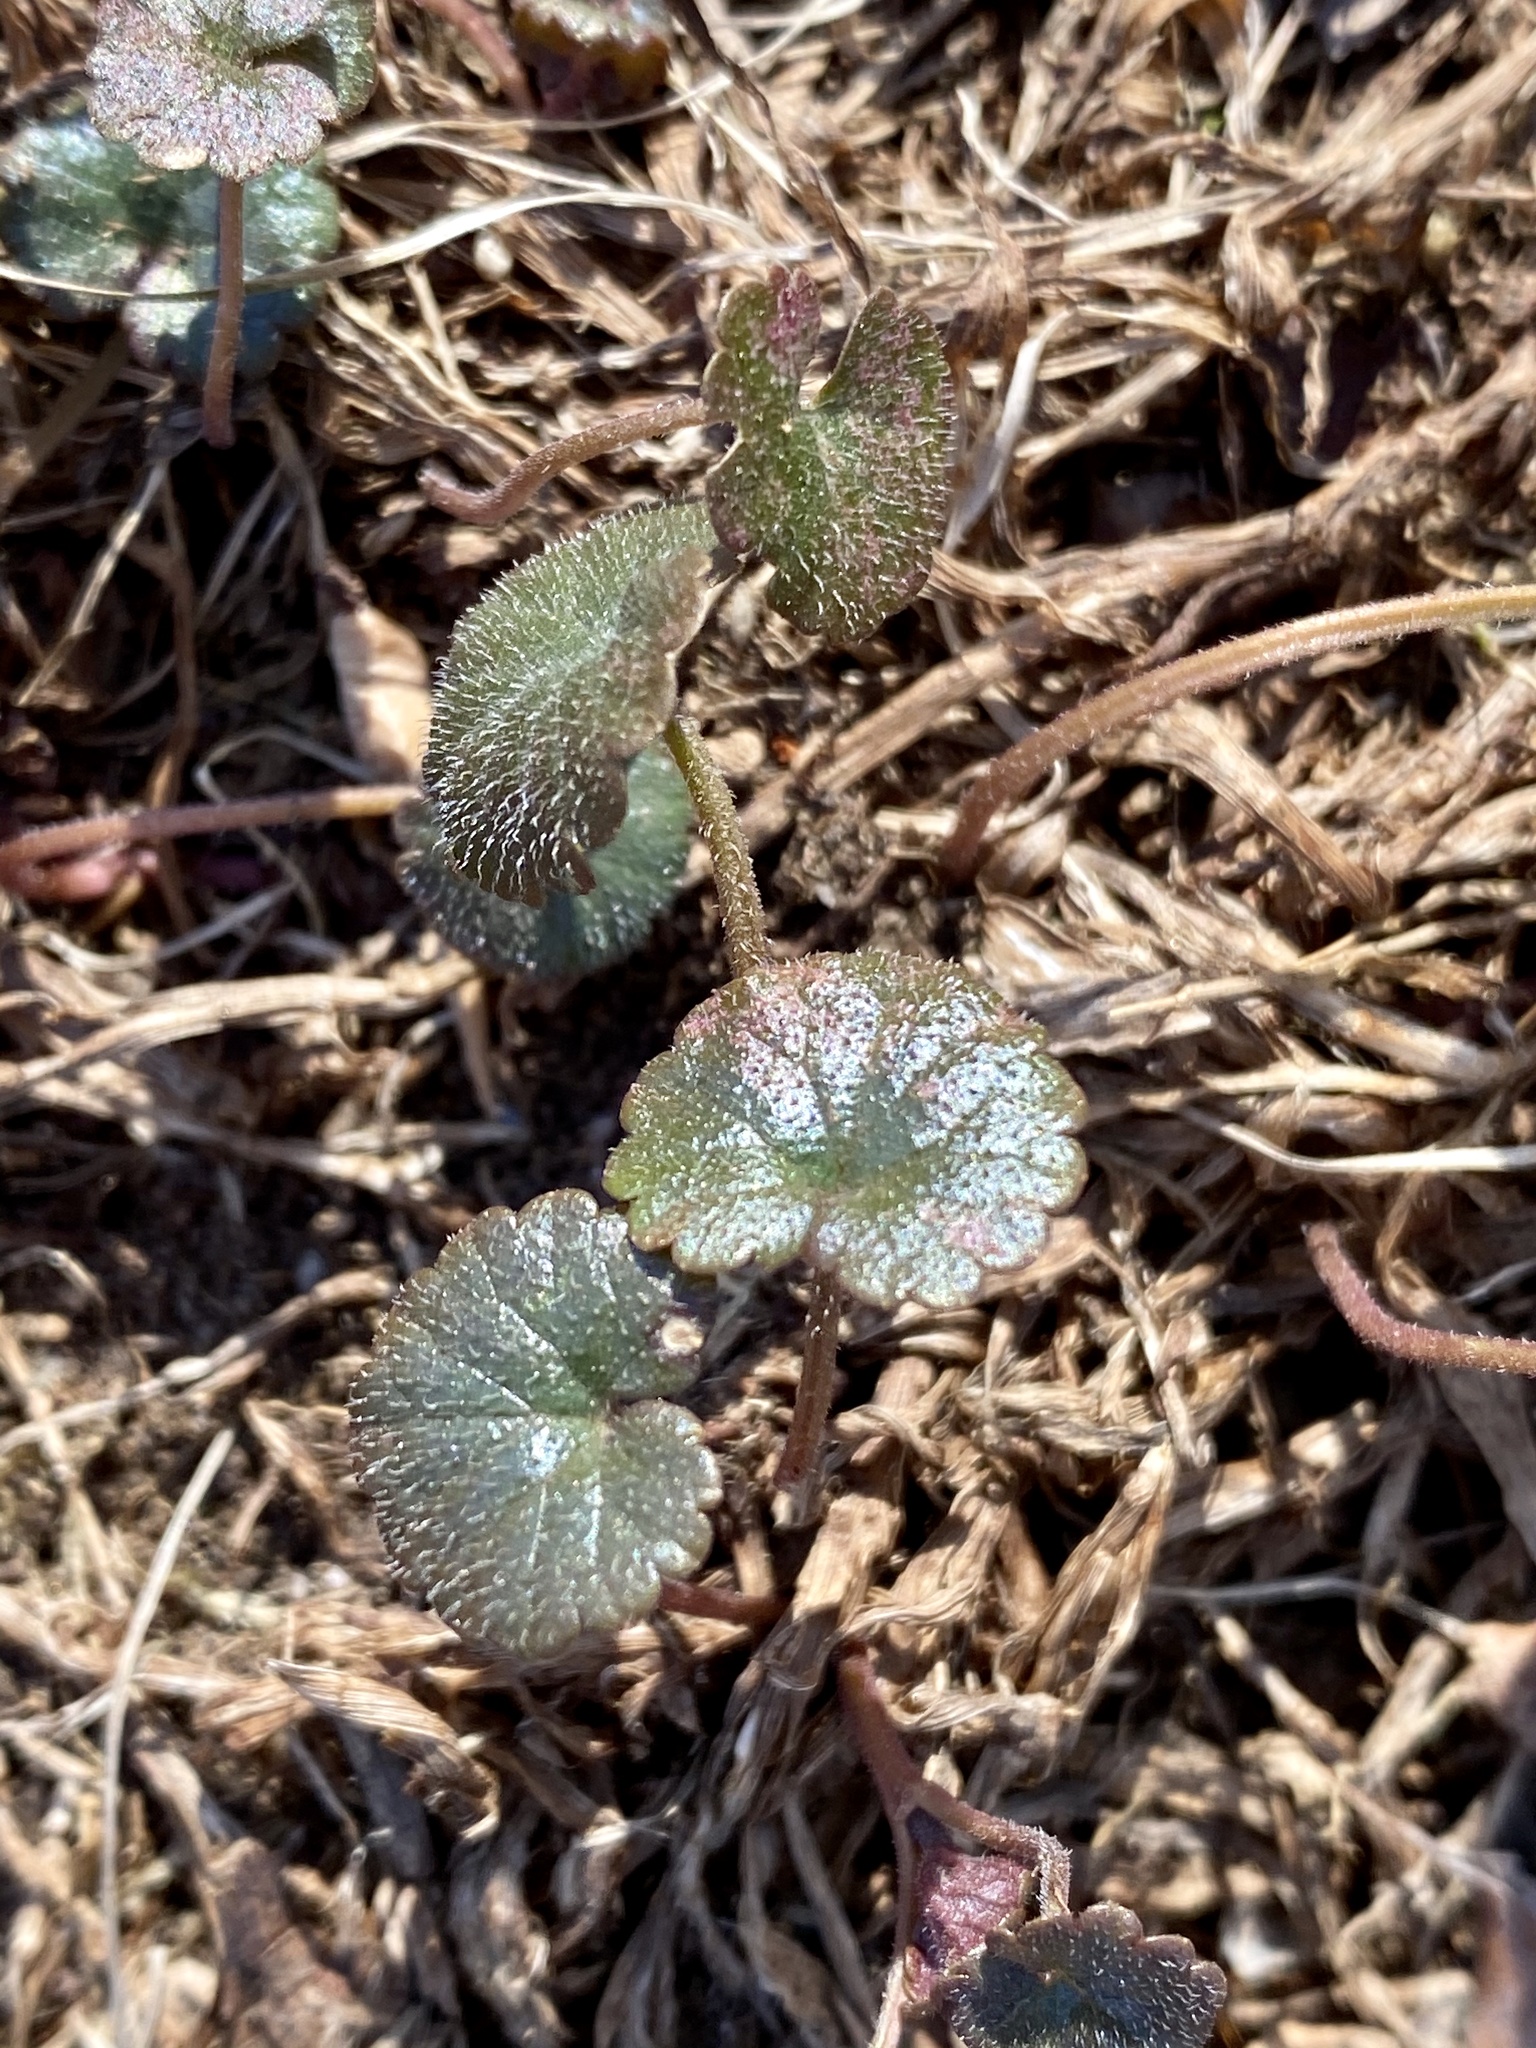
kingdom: Plantae
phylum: Tracheophyta
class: Magnoliopsida
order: Lamiales
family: Lamiaceae
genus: Glechoma
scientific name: Glechoma hederacea
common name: Ground ivy
